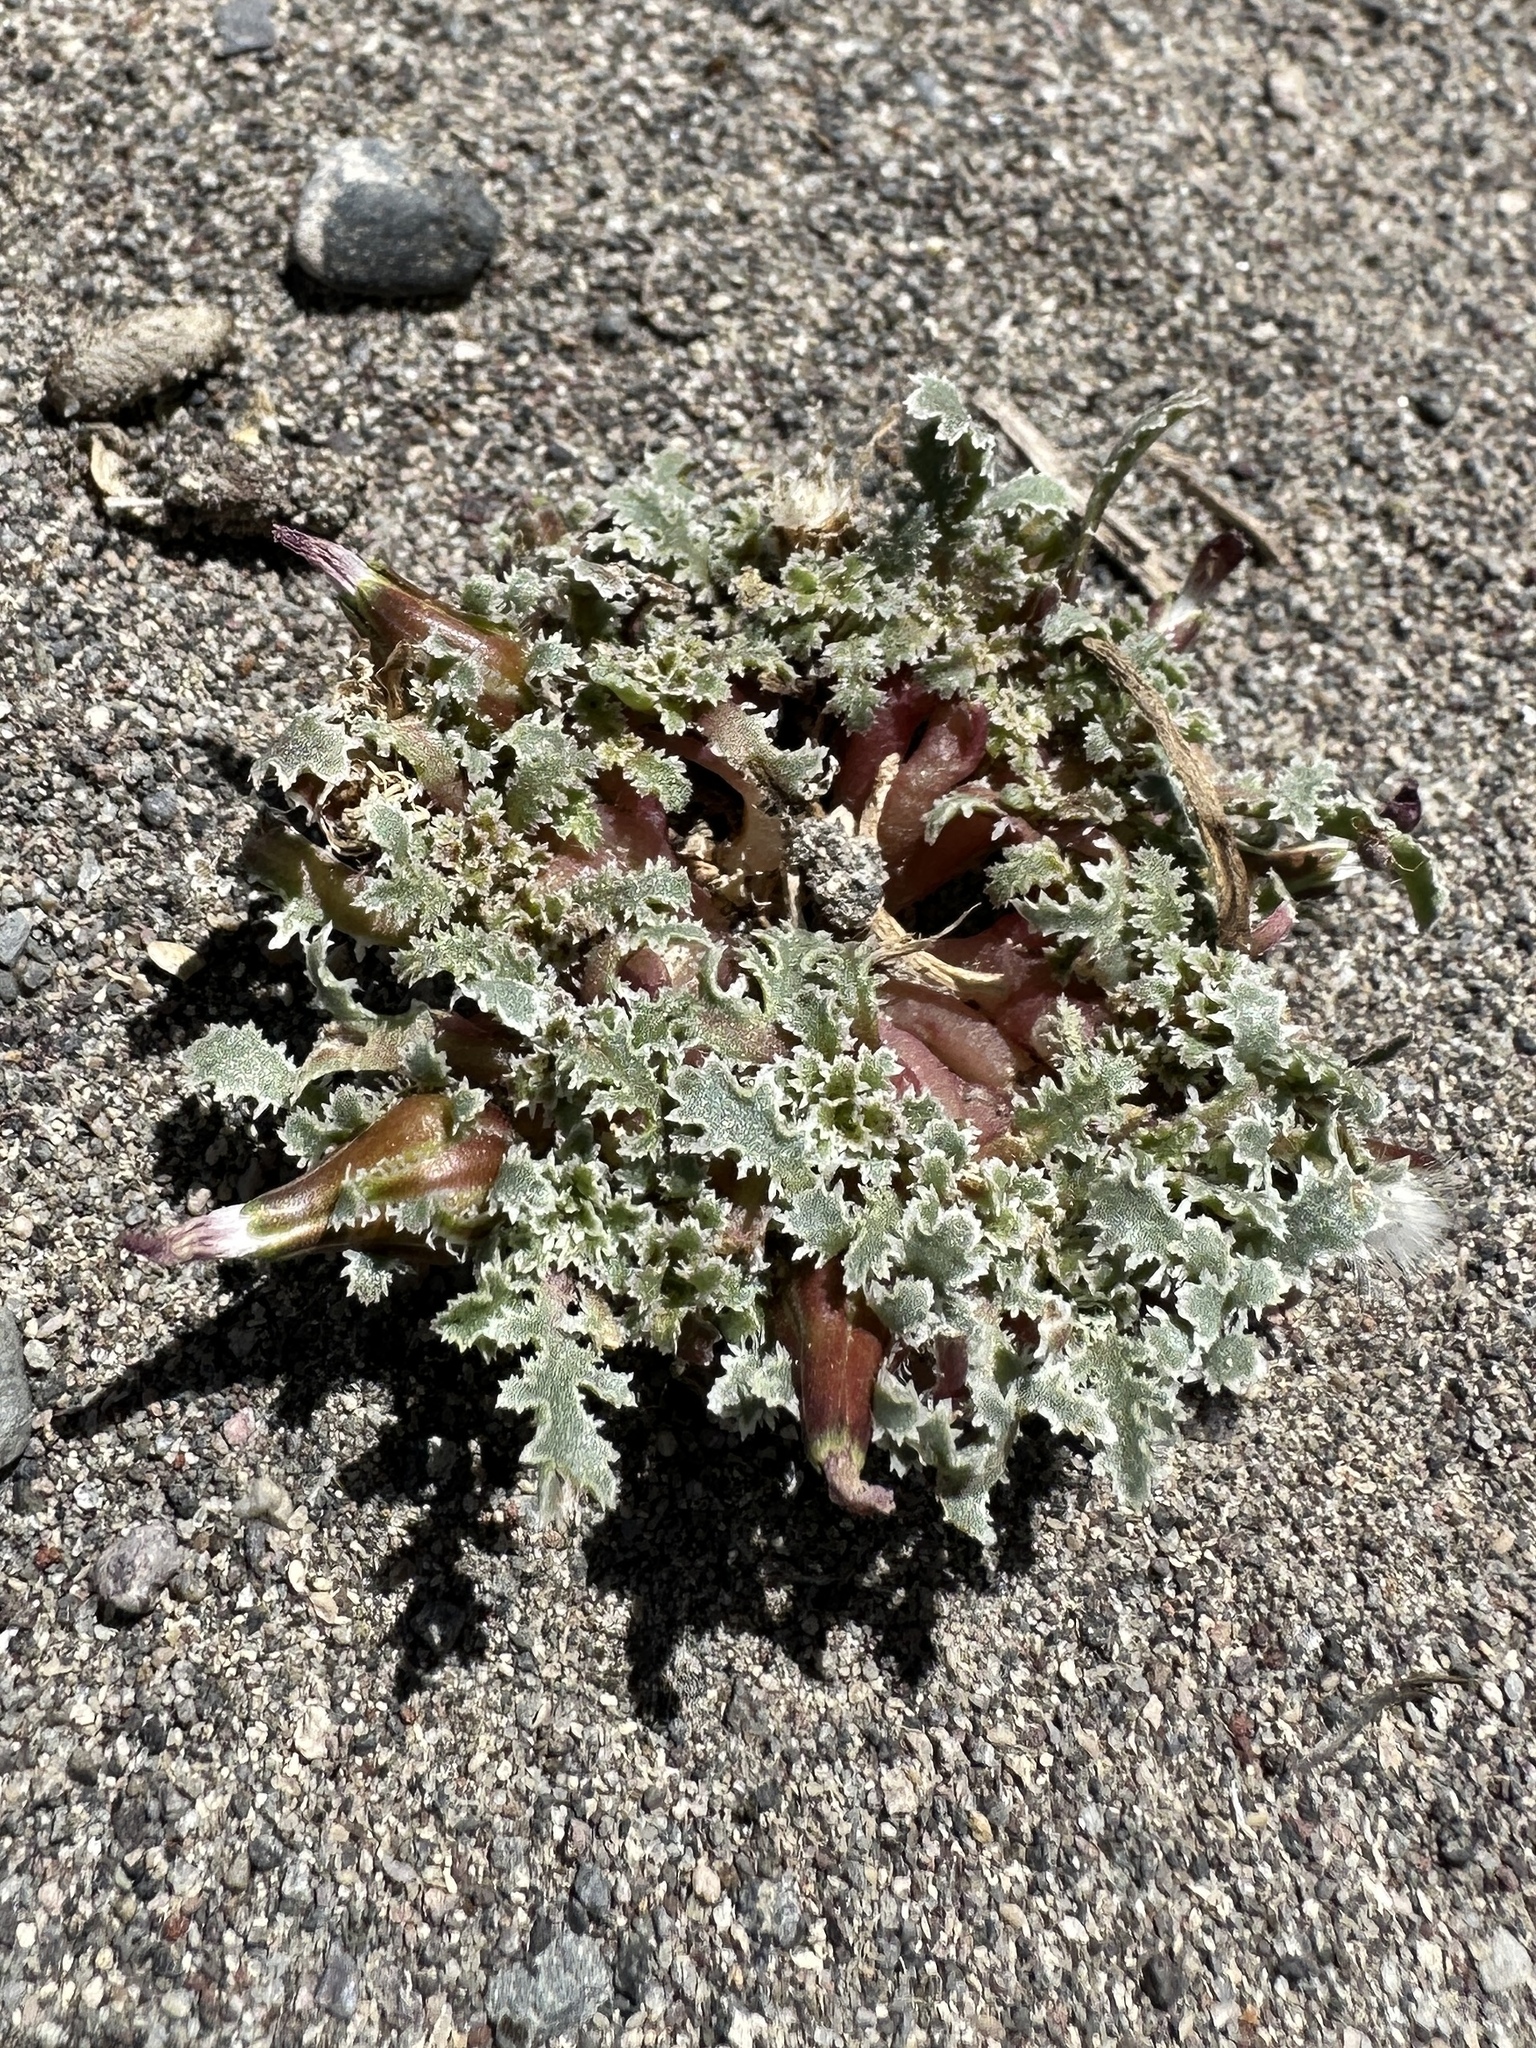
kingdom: Plantae
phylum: Tracheophyta
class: Magnoliopsida
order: Asterales
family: Asteraceae
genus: Glyptopleura
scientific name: Glyptopleura marginata
